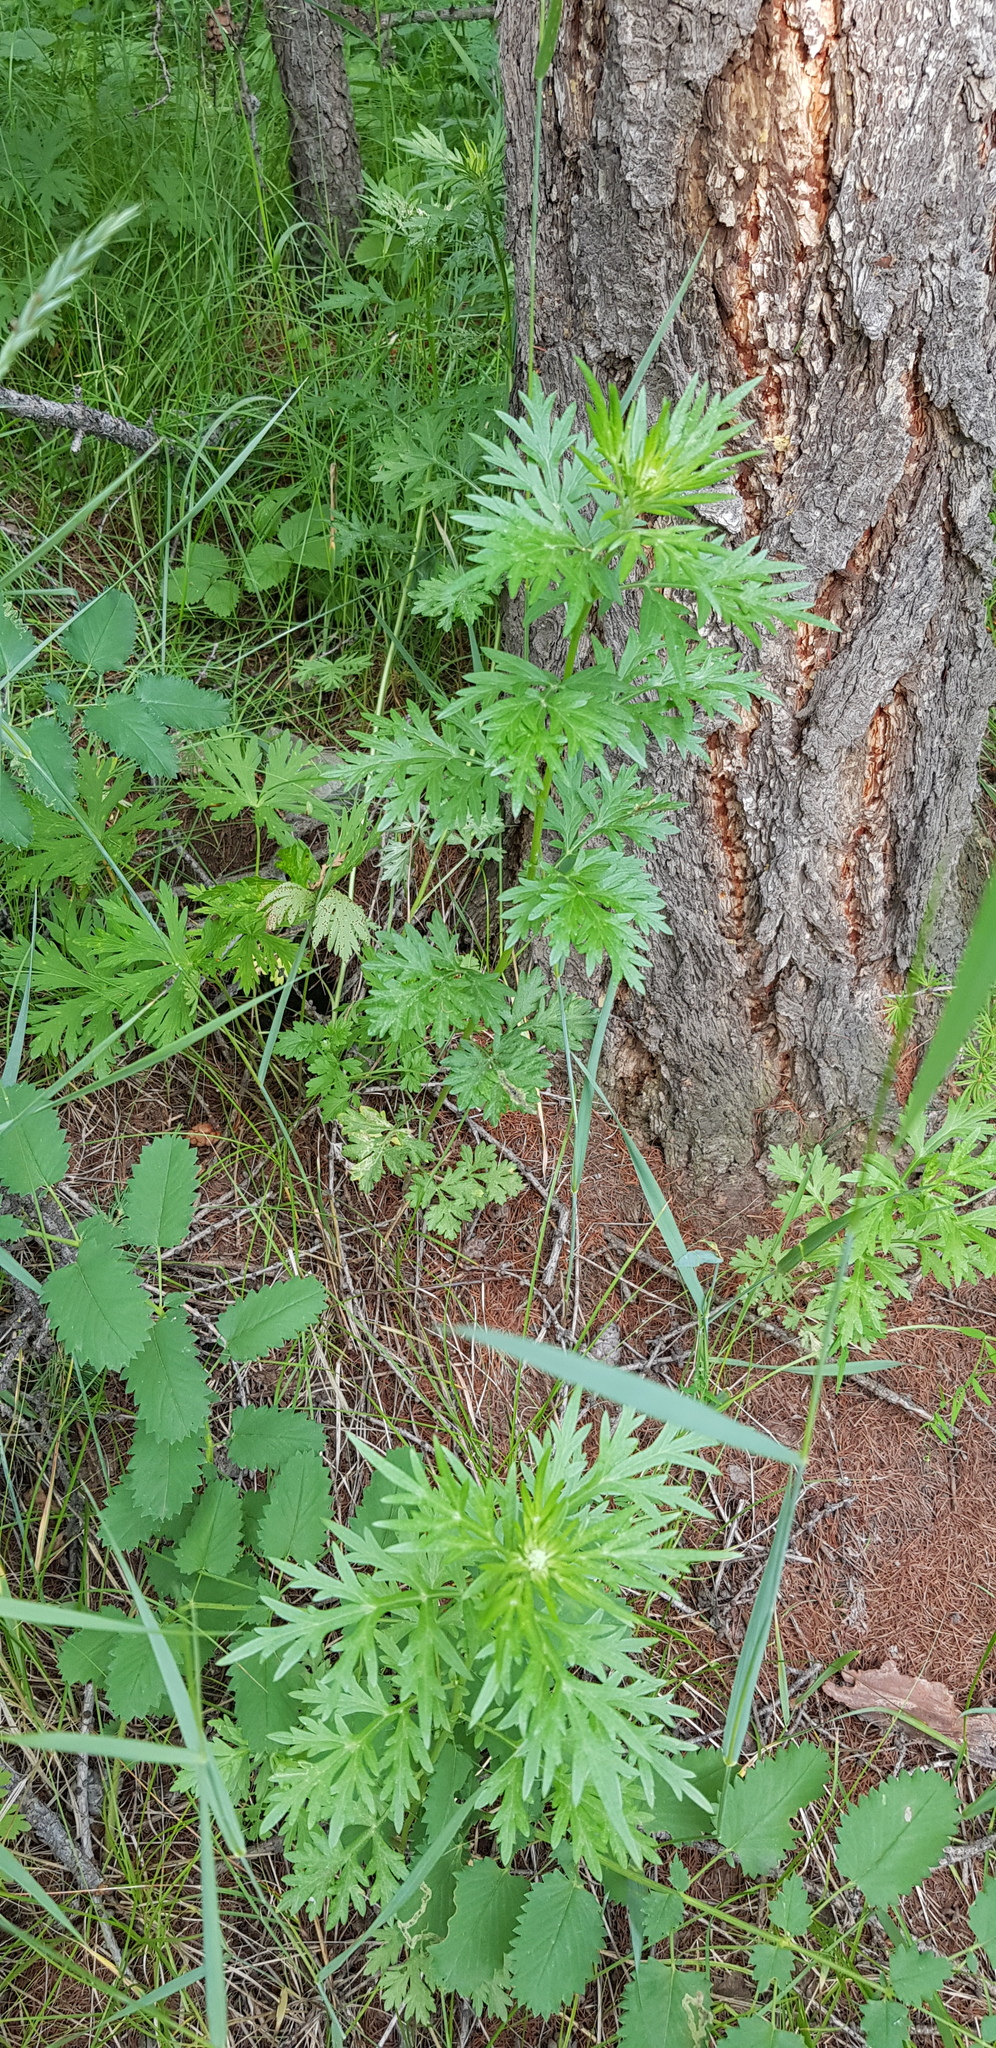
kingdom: Plantae
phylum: Tracheophyta
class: Magnoliopsida
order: Asterales
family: Asteraceae
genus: Artemisia
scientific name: Artemisia sieversiana
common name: Sieversian wormwood
